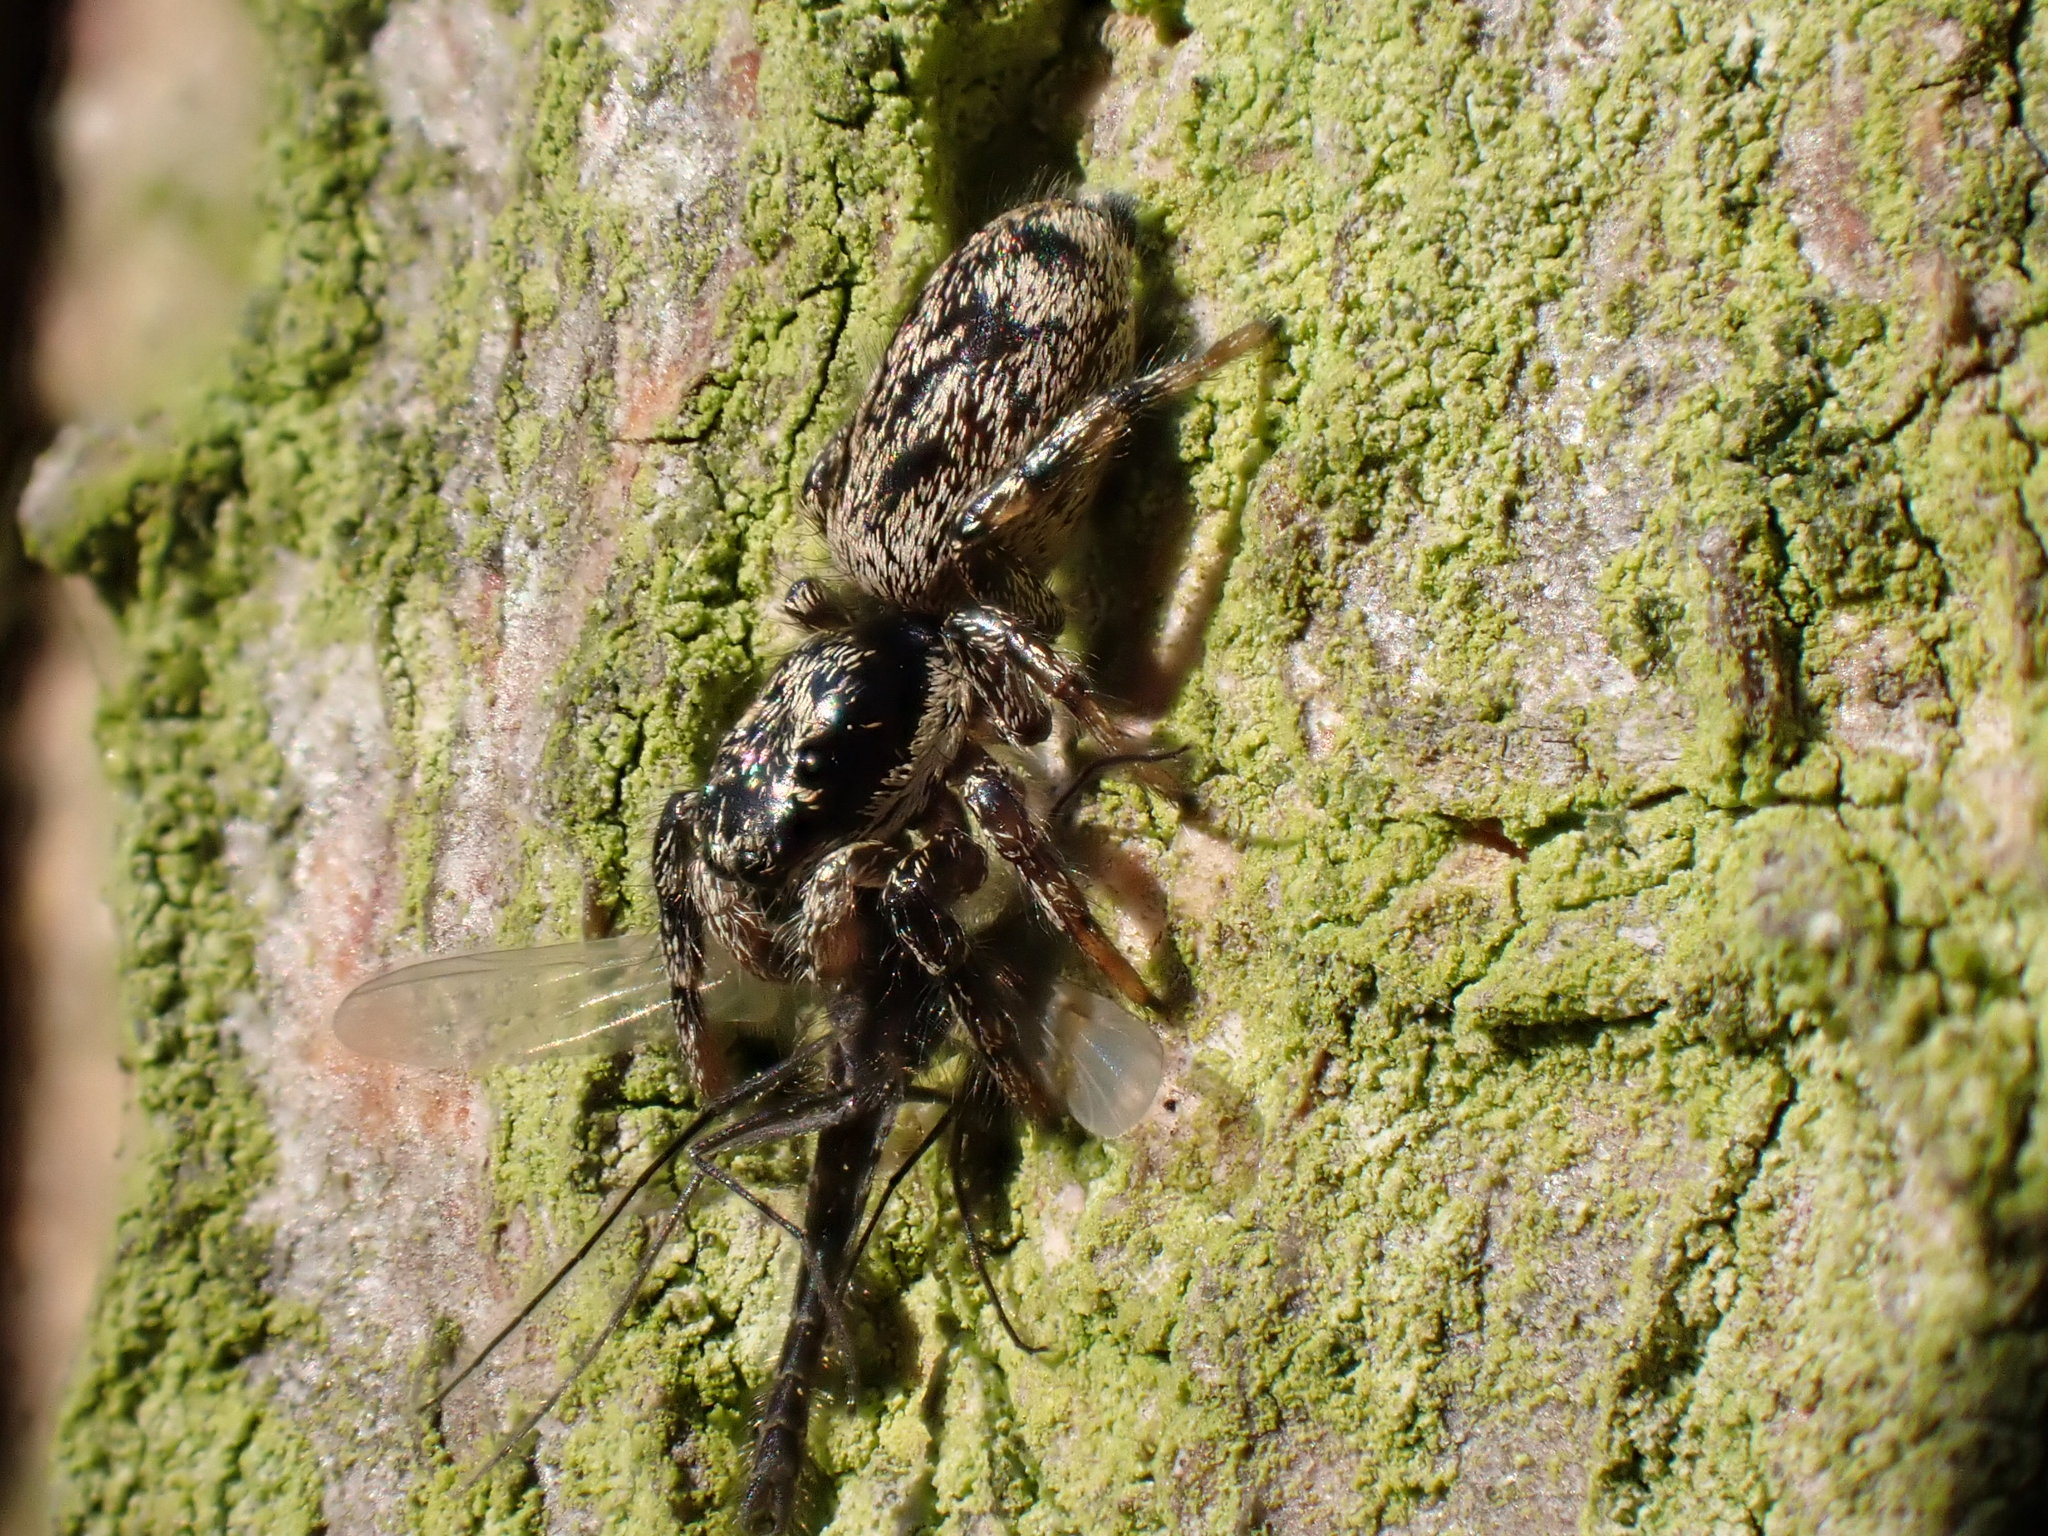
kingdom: Animalia
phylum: Arthropoda
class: Arachnida
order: Araneae
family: Salticidae
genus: Salticus
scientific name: Salticus
